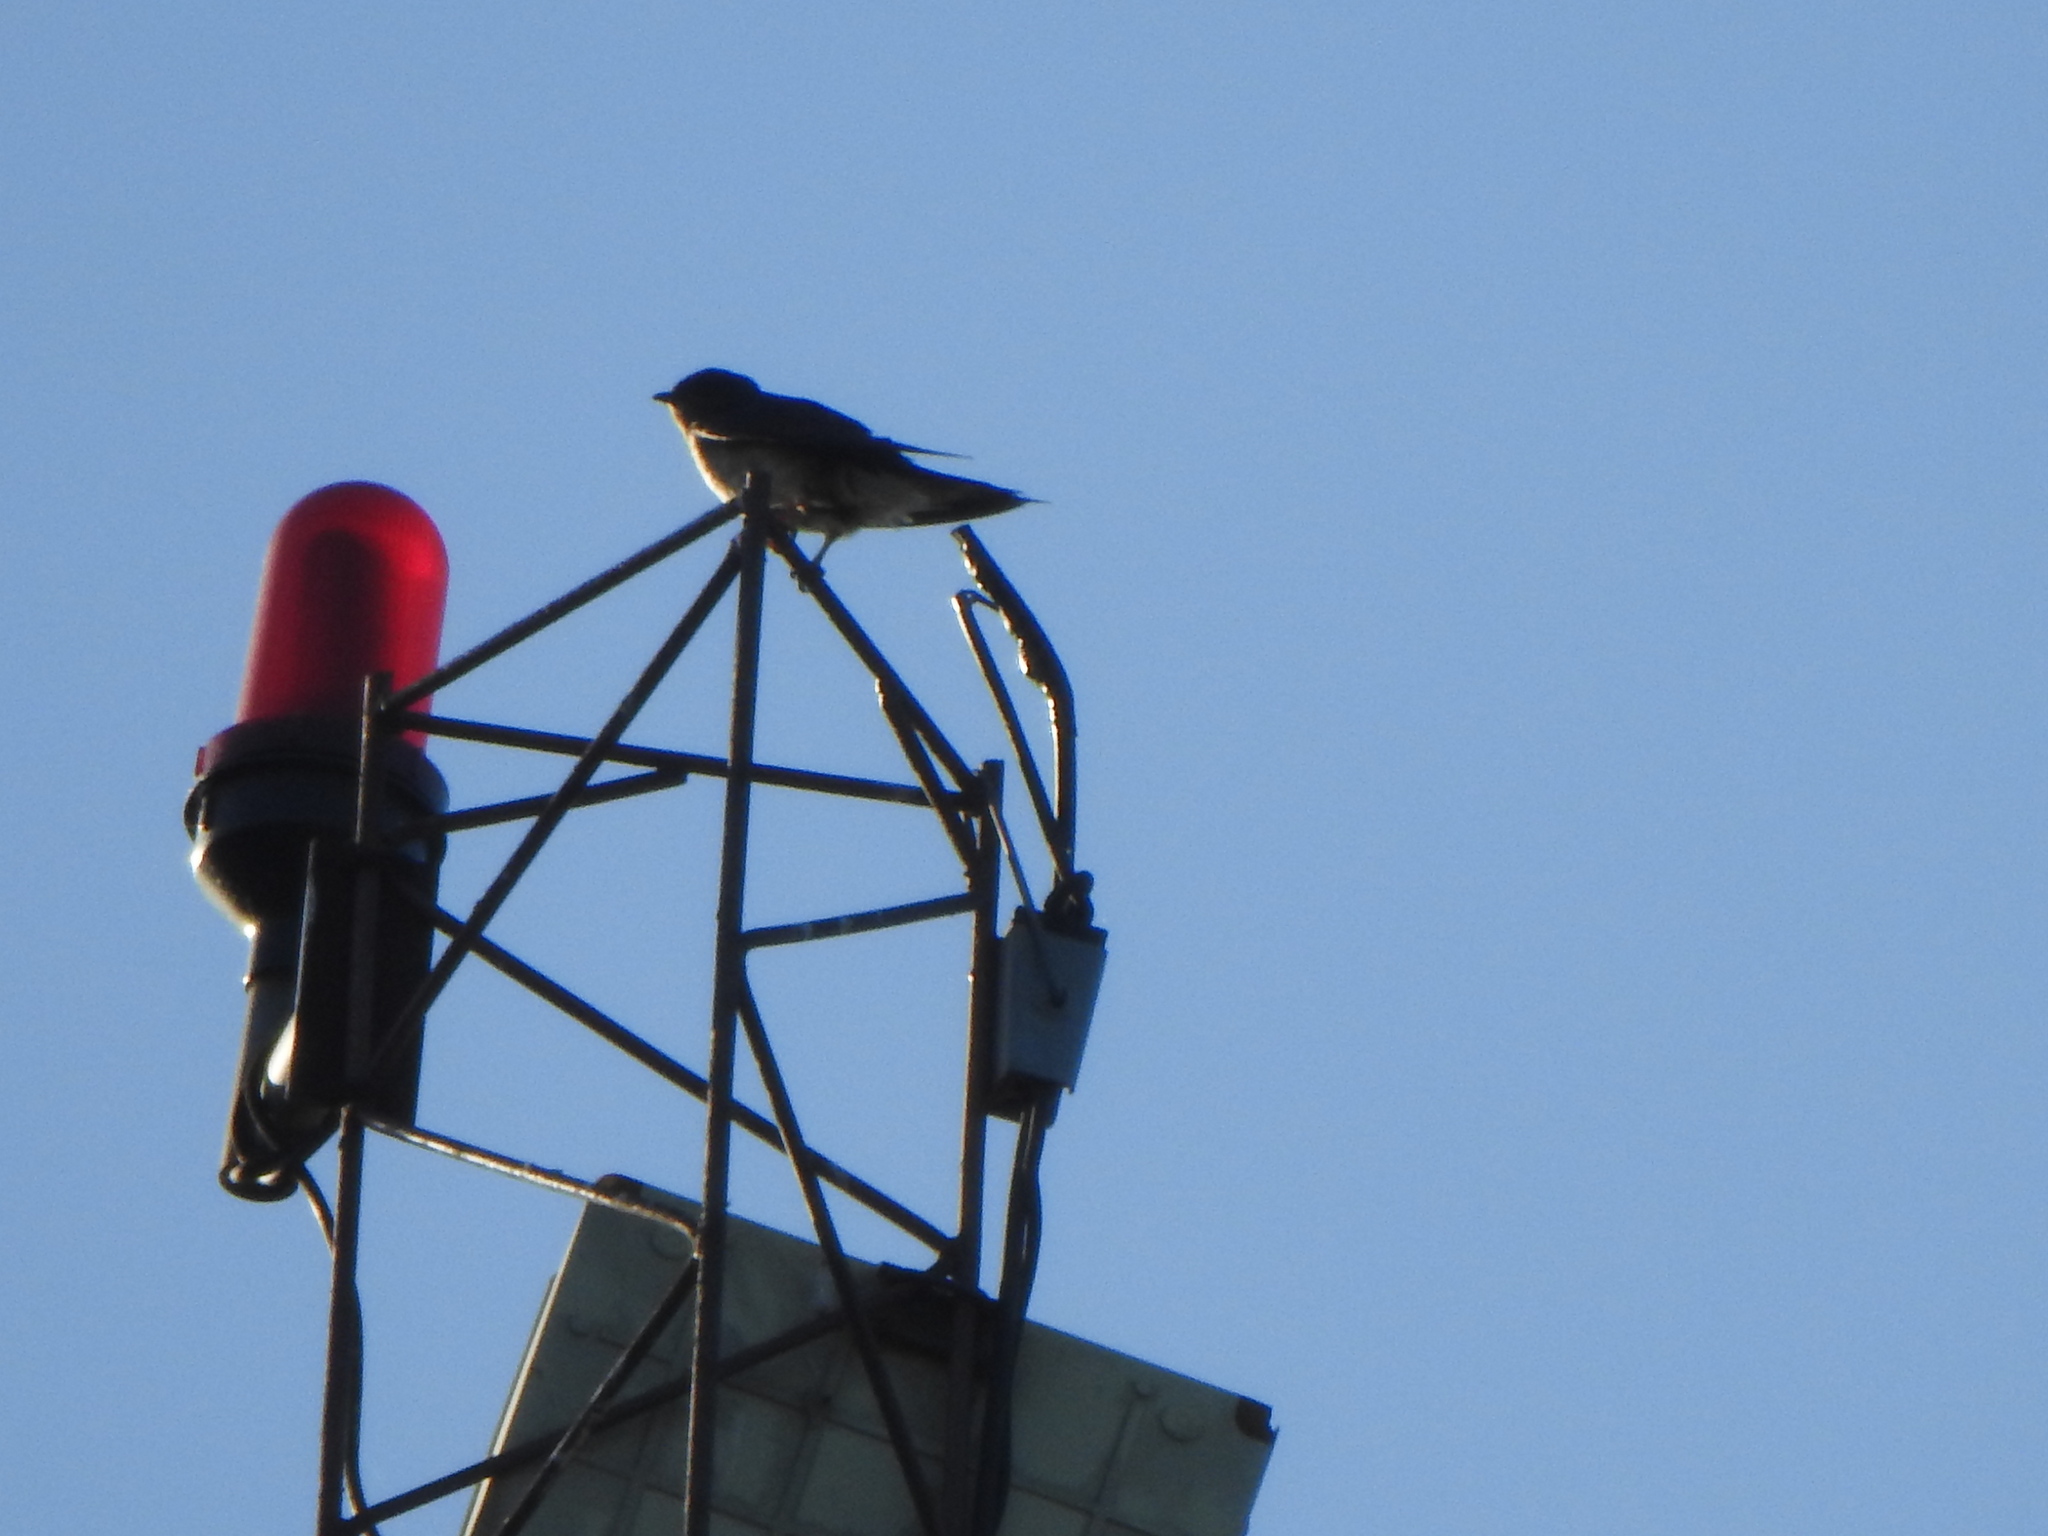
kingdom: Animalia
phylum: Chordata
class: Aves
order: Passeriformes
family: Hirundinidae
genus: Progne
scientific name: Progne chalybea
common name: Grey-breasted martin
